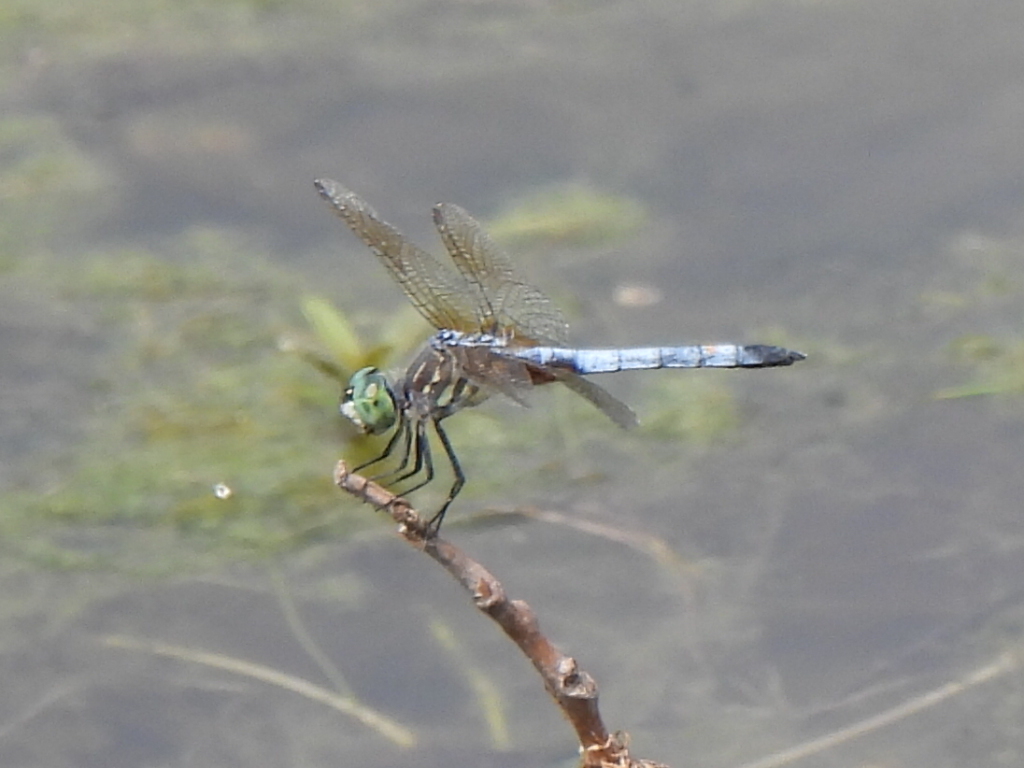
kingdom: Animalia
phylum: Arthropoda
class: Insecta
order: Odonata
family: Libellulidae
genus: Pachydiplax
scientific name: Pachydiplax longipennis
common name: Blue dasher
